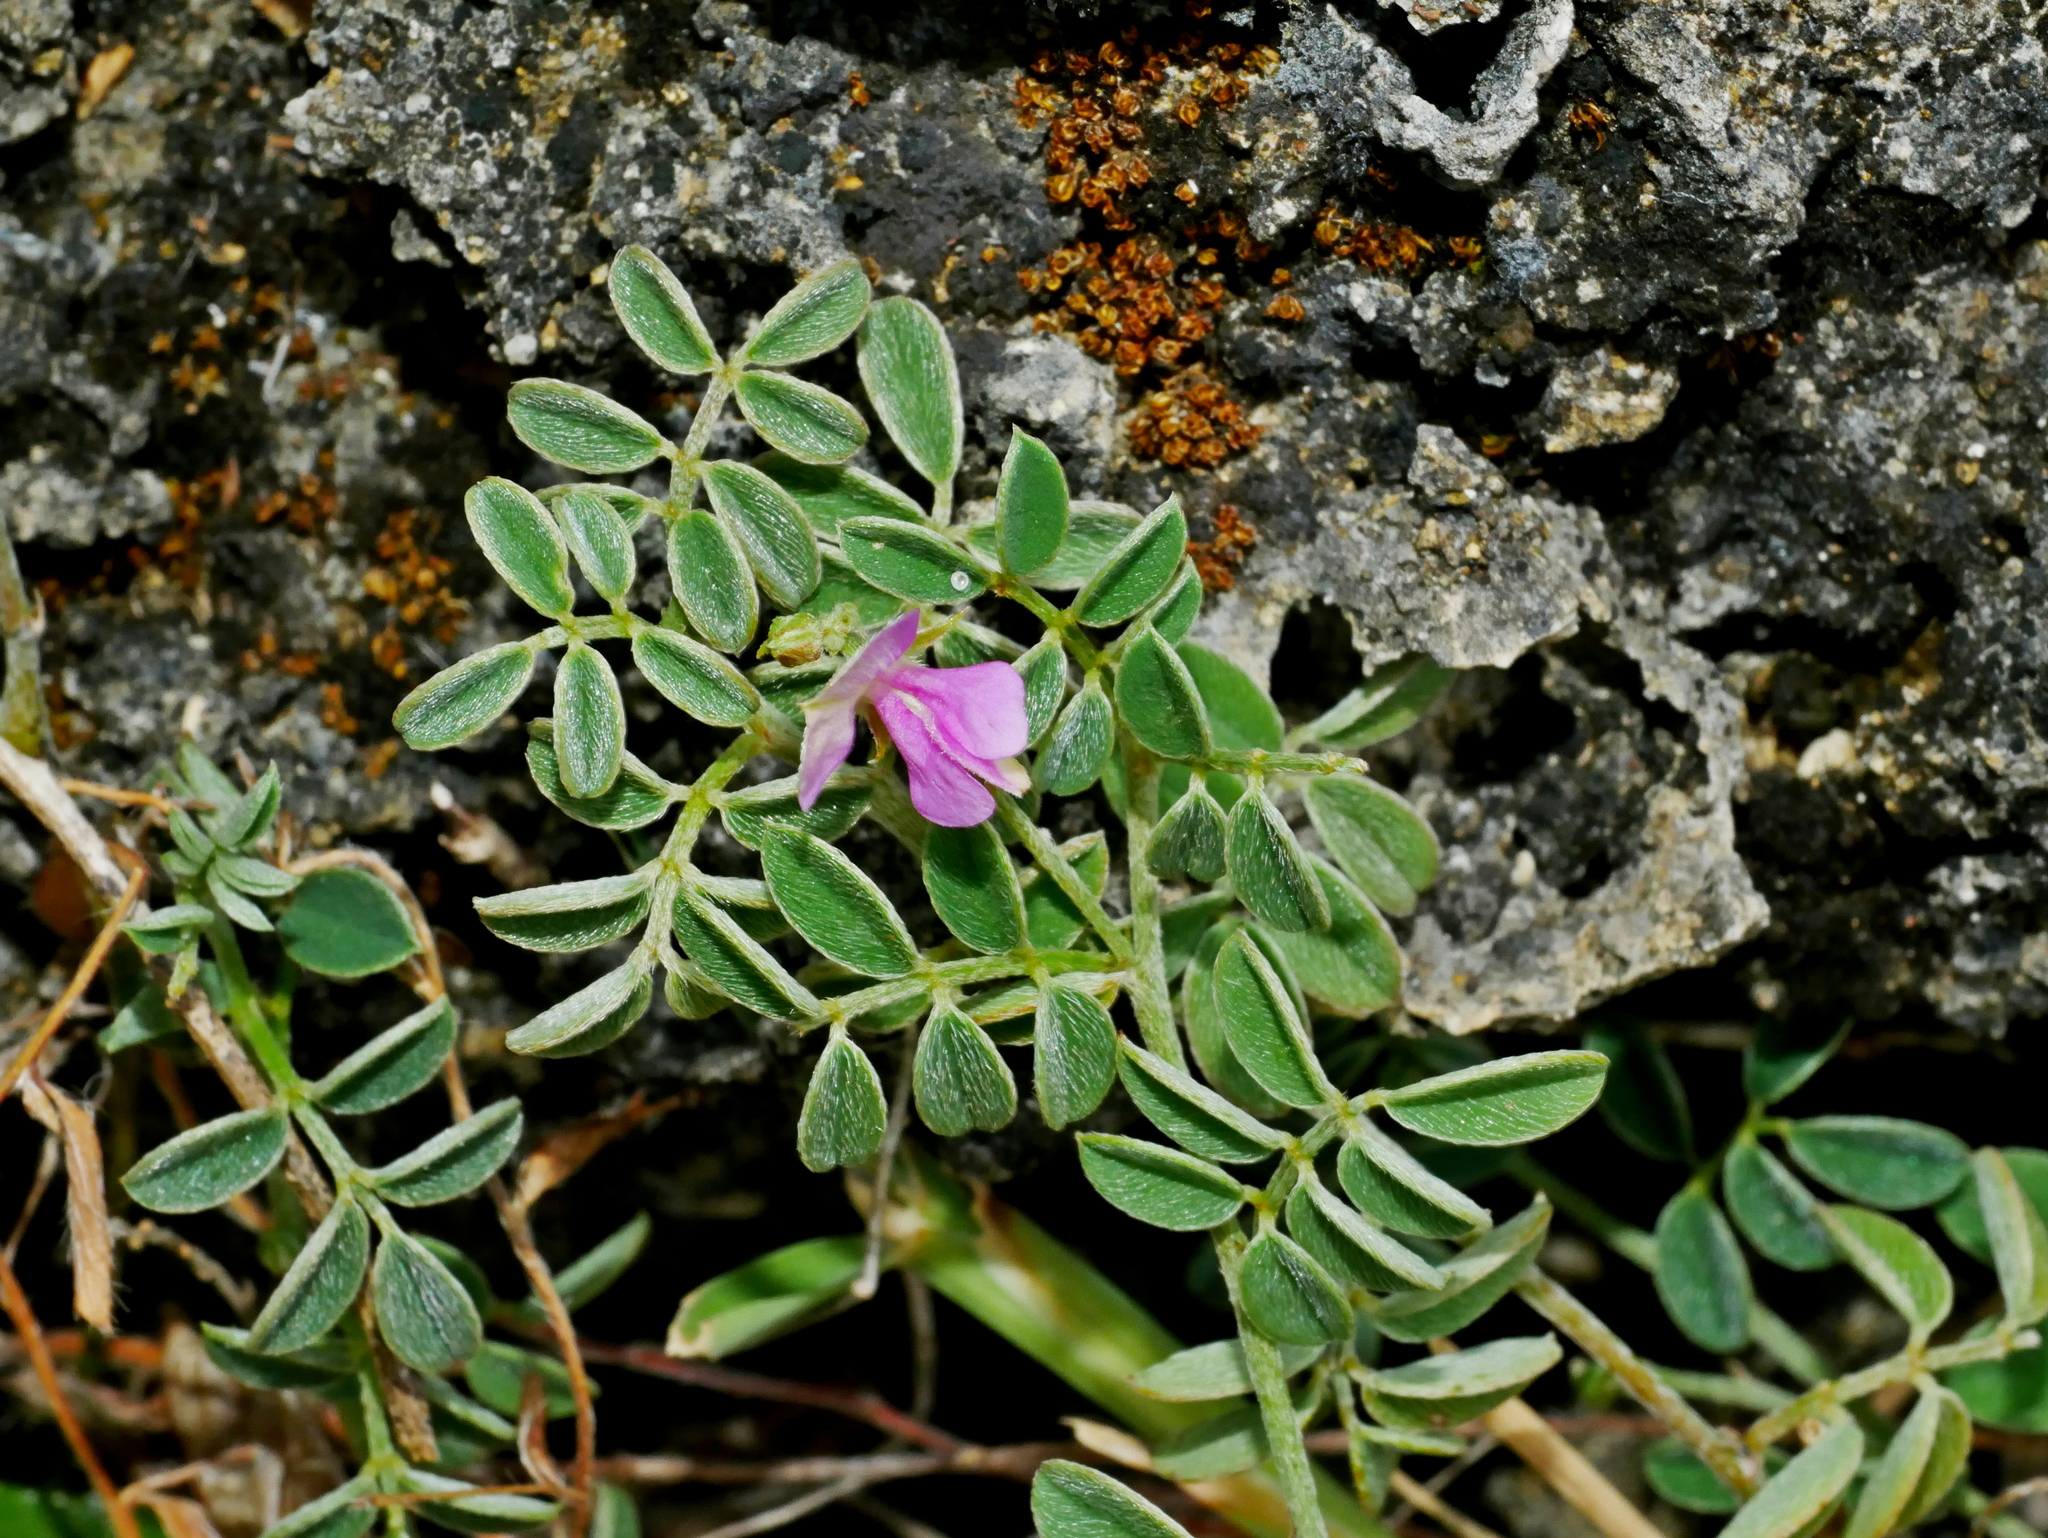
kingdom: Plantae
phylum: Tracheophyta
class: Magnoliopsida
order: Fabales
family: Fabaceae
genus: Indigofera
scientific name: Indigofera byobiensis
